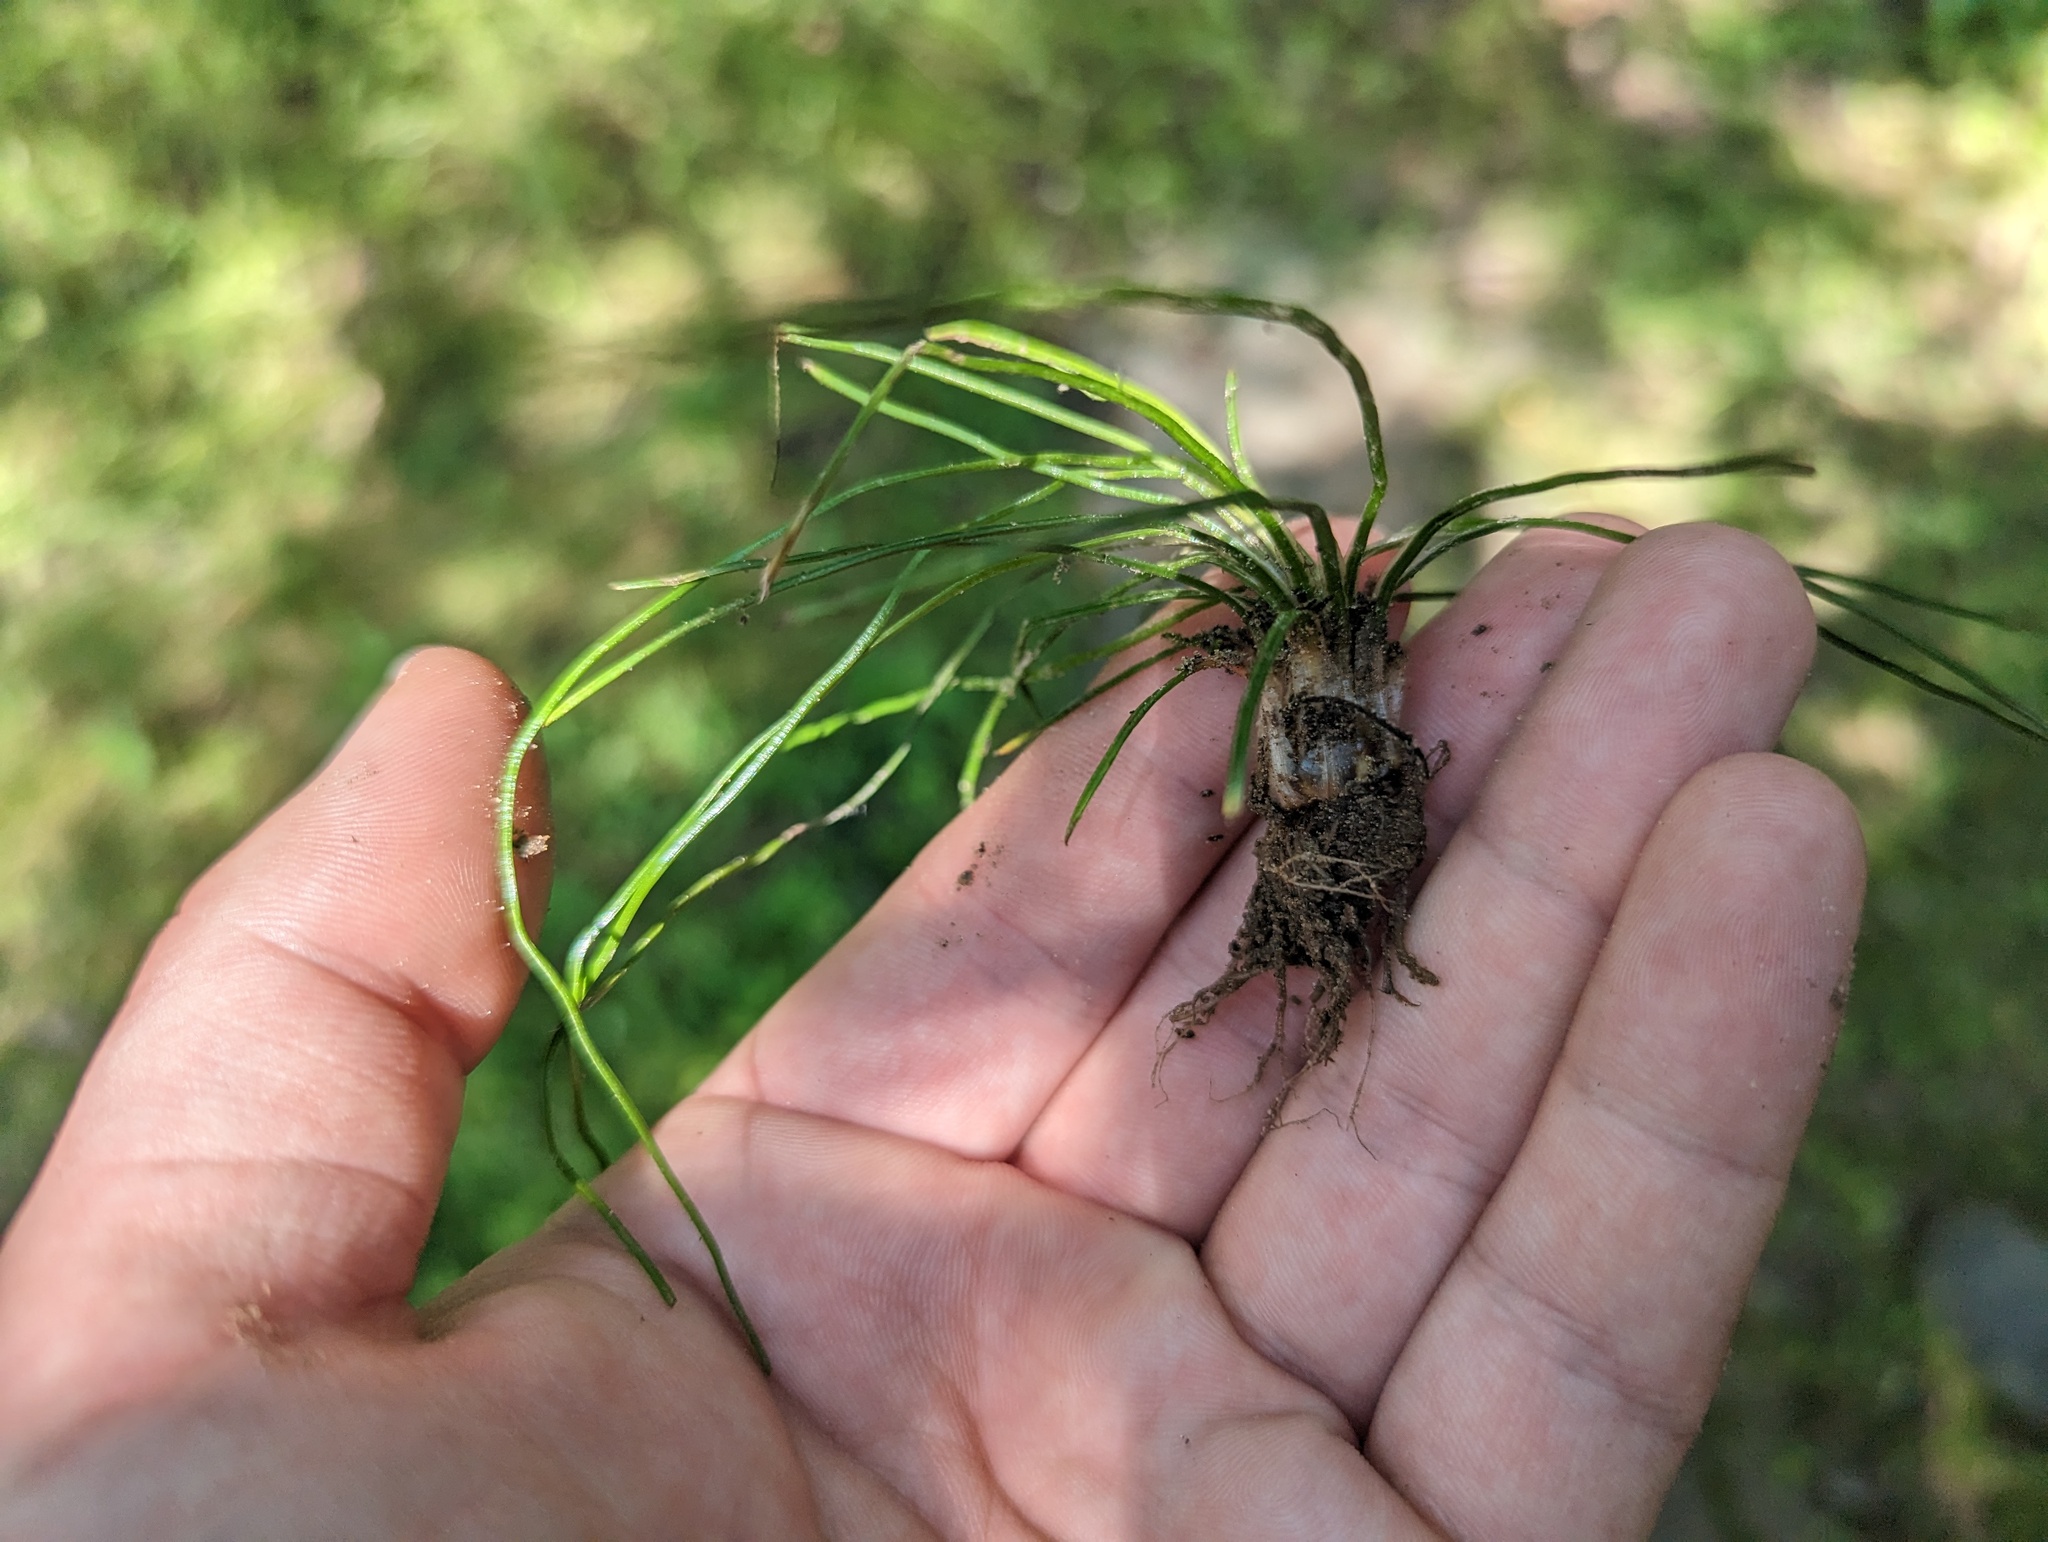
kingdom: Plantae
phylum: Tracheophyta
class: Lycopodiopsida
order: Isoetales
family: Isoetaceae
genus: Isoetes
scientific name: Isoetes melanopoda
